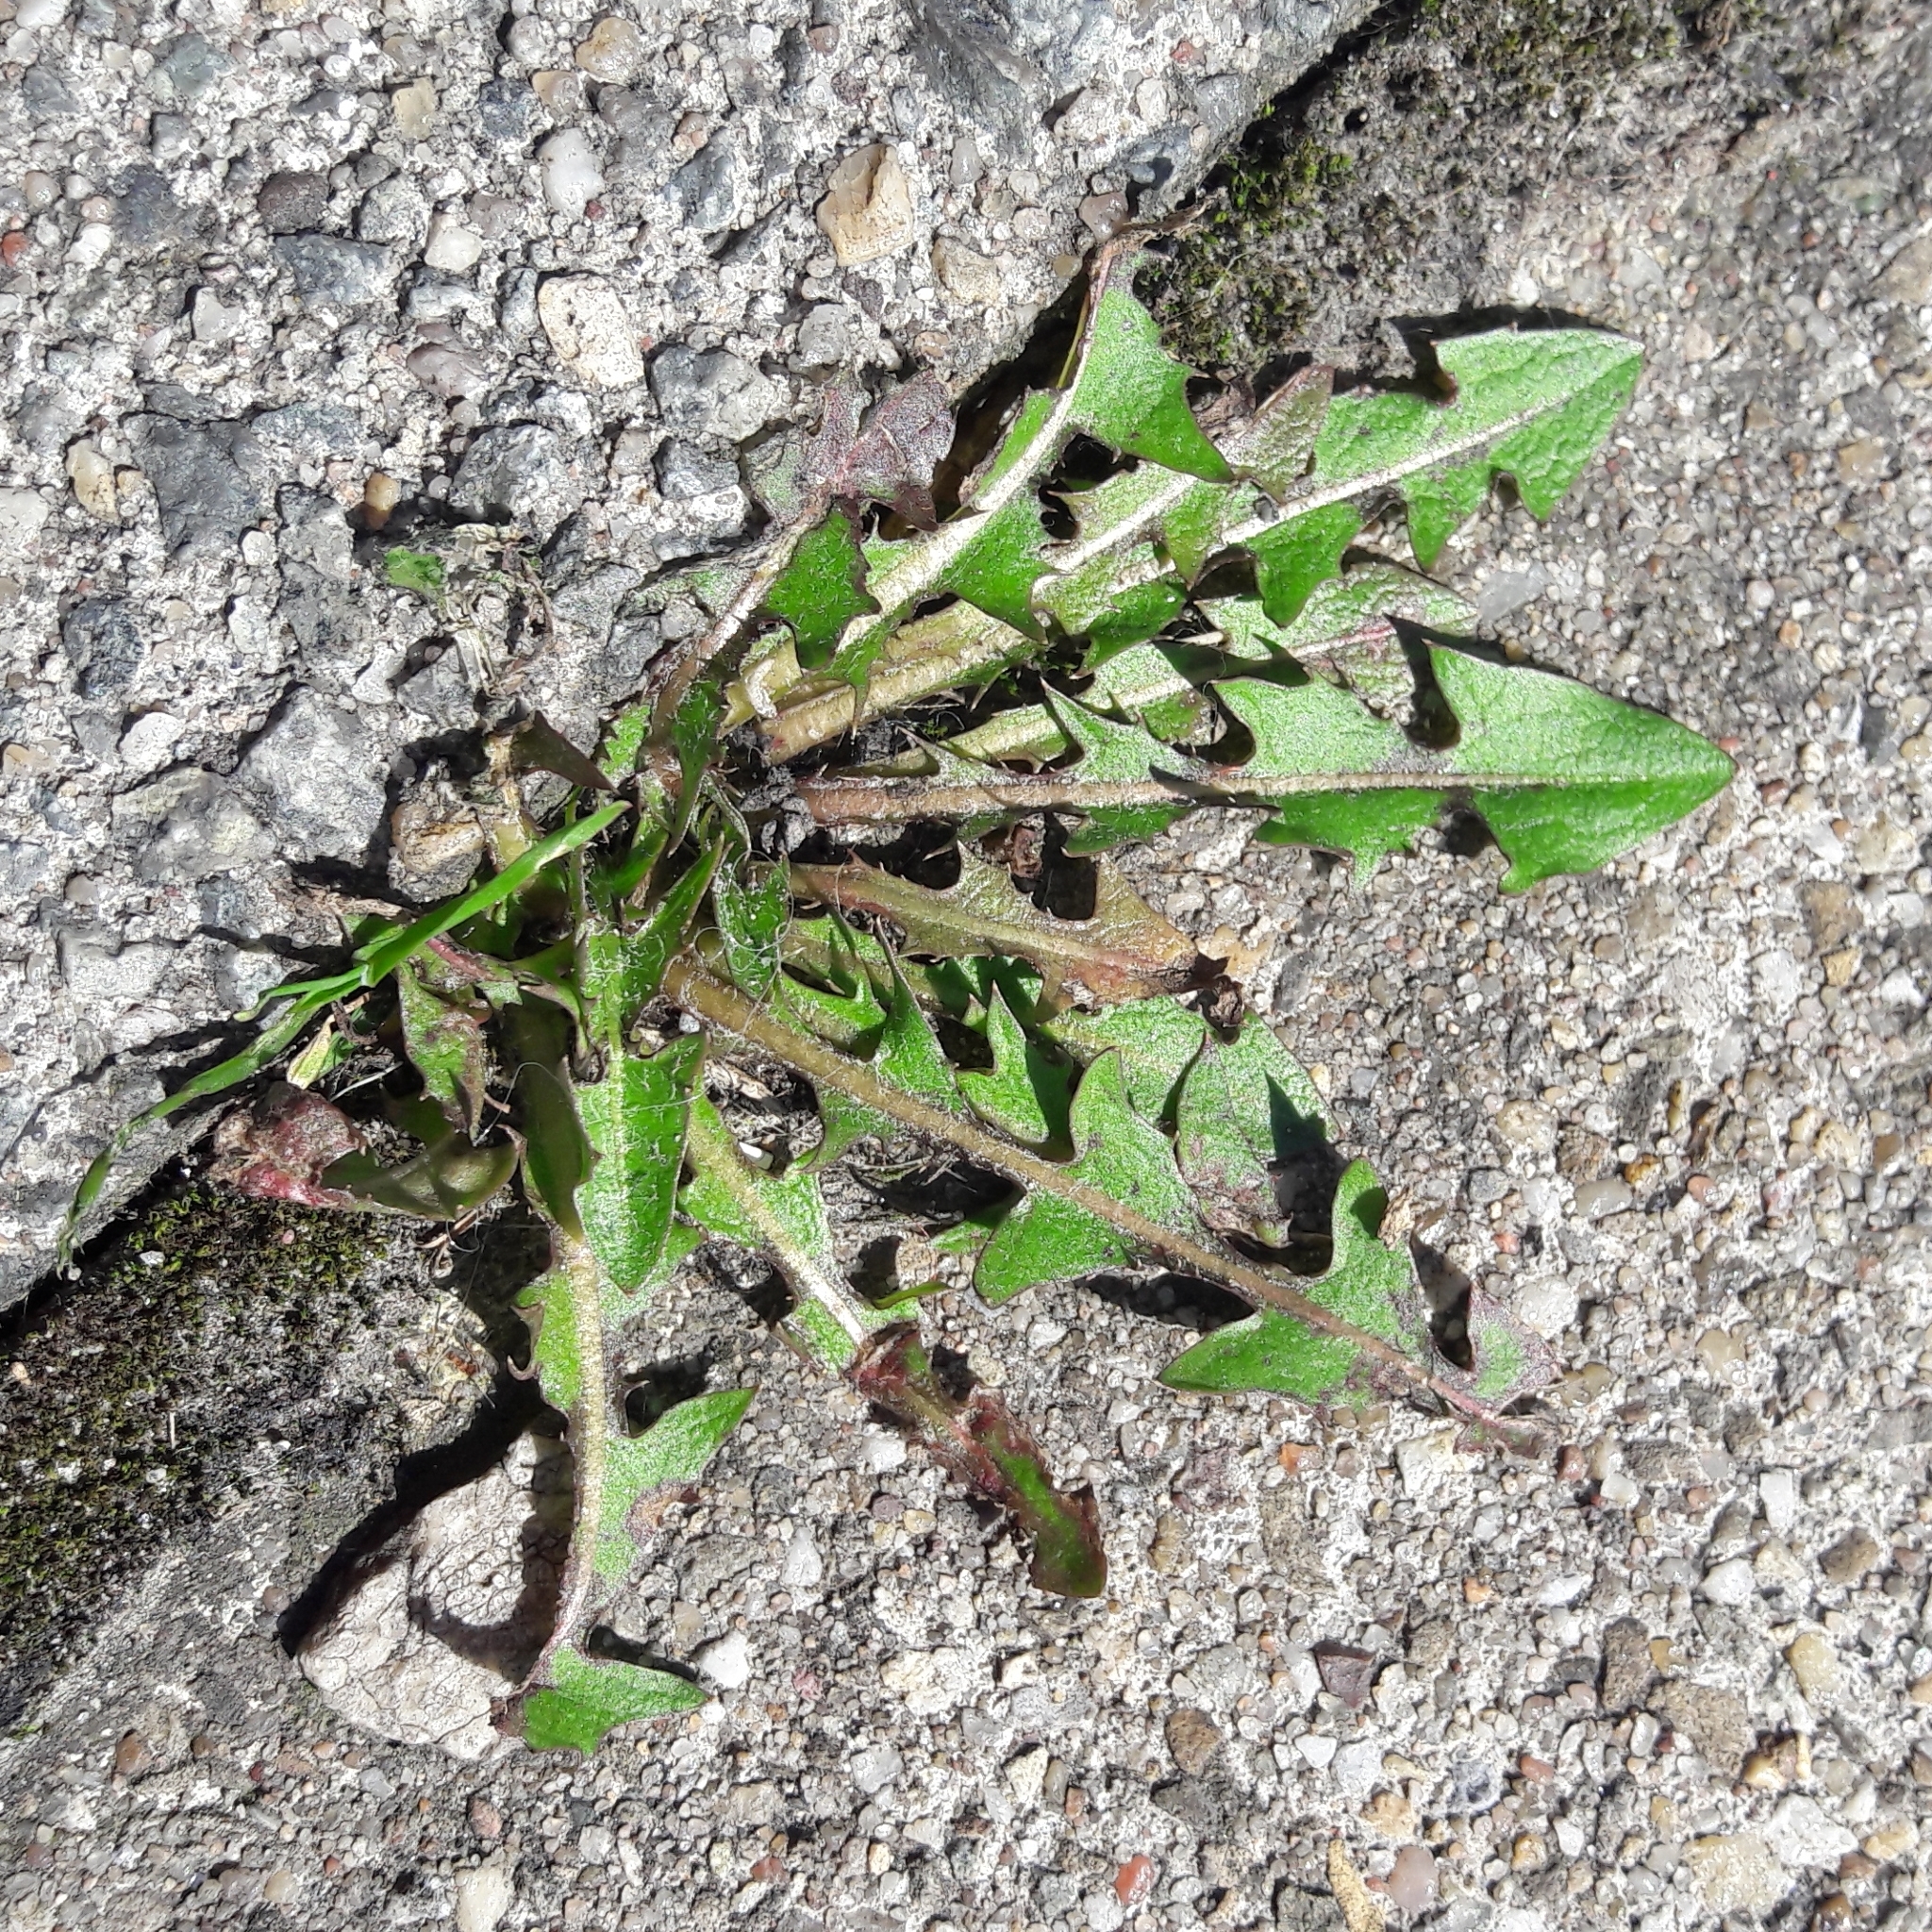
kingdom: Plantae
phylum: Tracheophyta
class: Magnoliopsida
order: Asterales
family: Asteraceae
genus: Taraxacum
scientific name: Taraxacum officinale
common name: Common dandelion
